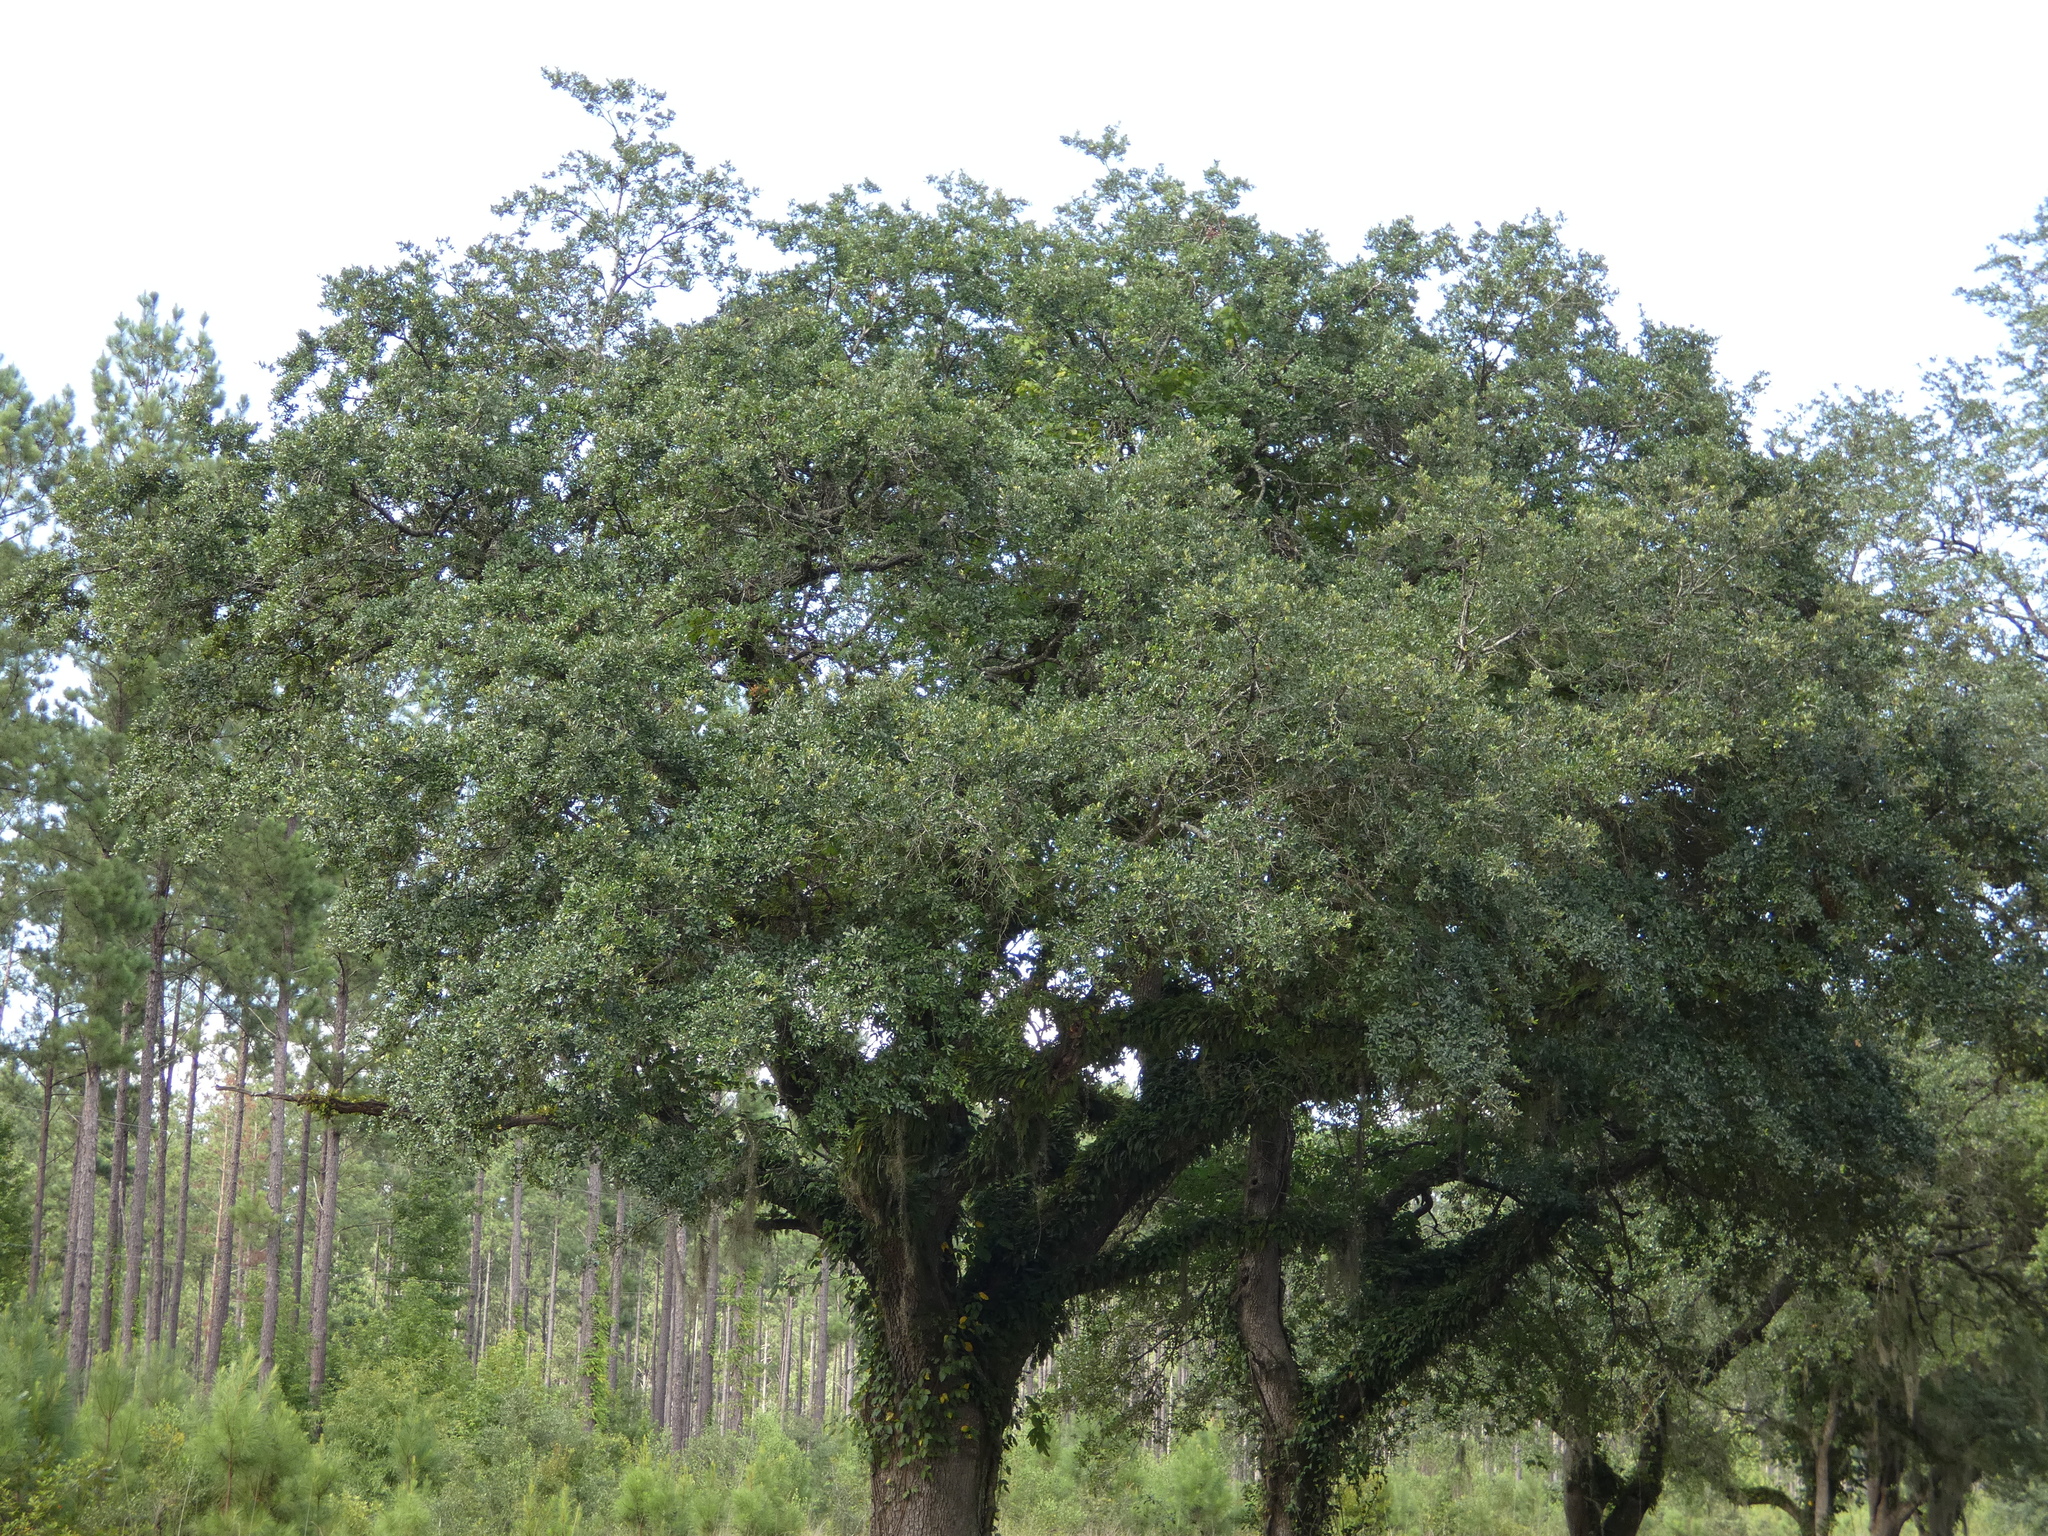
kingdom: Plantae
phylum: Tracheophyta
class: Magnoliopsida
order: Fagales
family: Fagaceae
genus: Quercus
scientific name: Quercus virginiana
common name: Southern live oak
